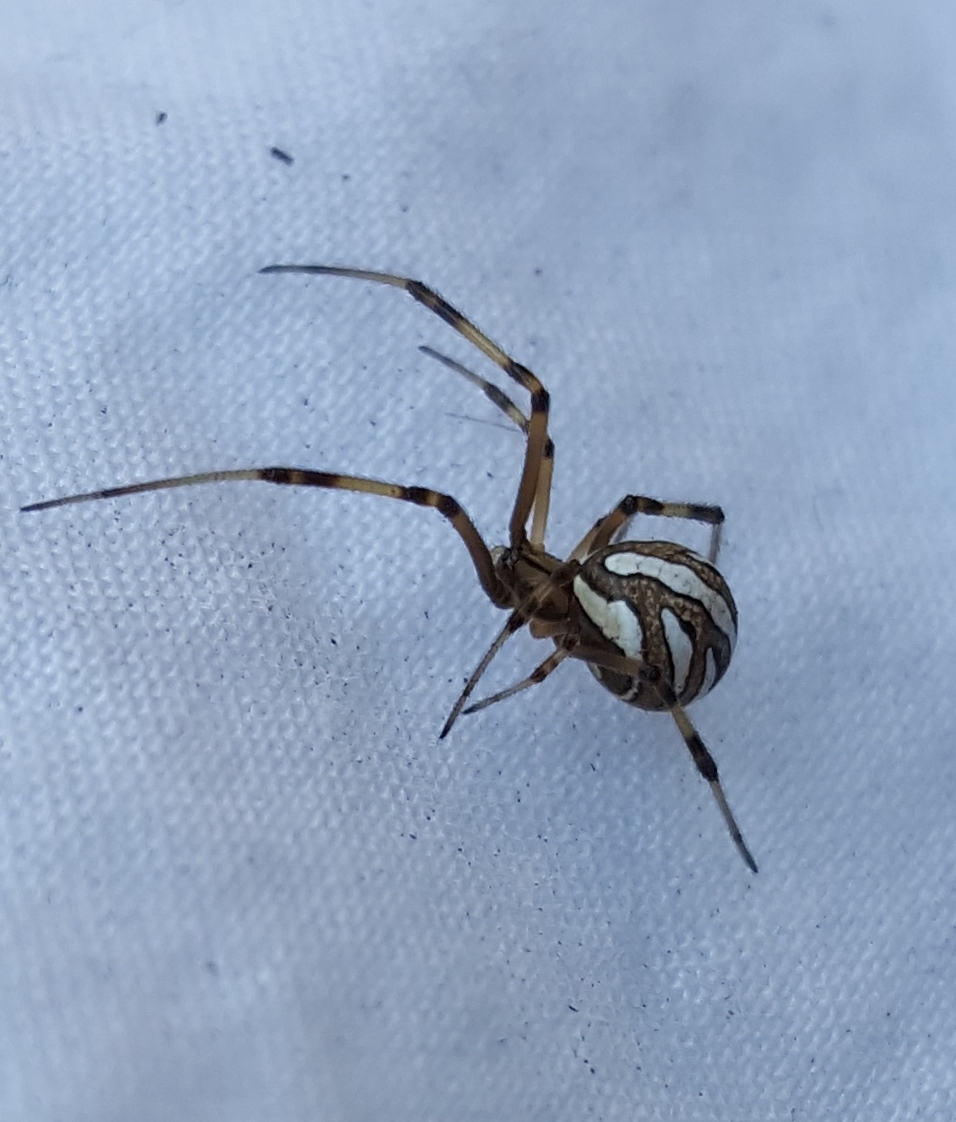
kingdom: Animalia
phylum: Arthropoda
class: Arachnida
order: Araneae
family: Theridiidae
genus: Latrodectus
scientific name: Latrodectus hesperus
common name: Western black widow
